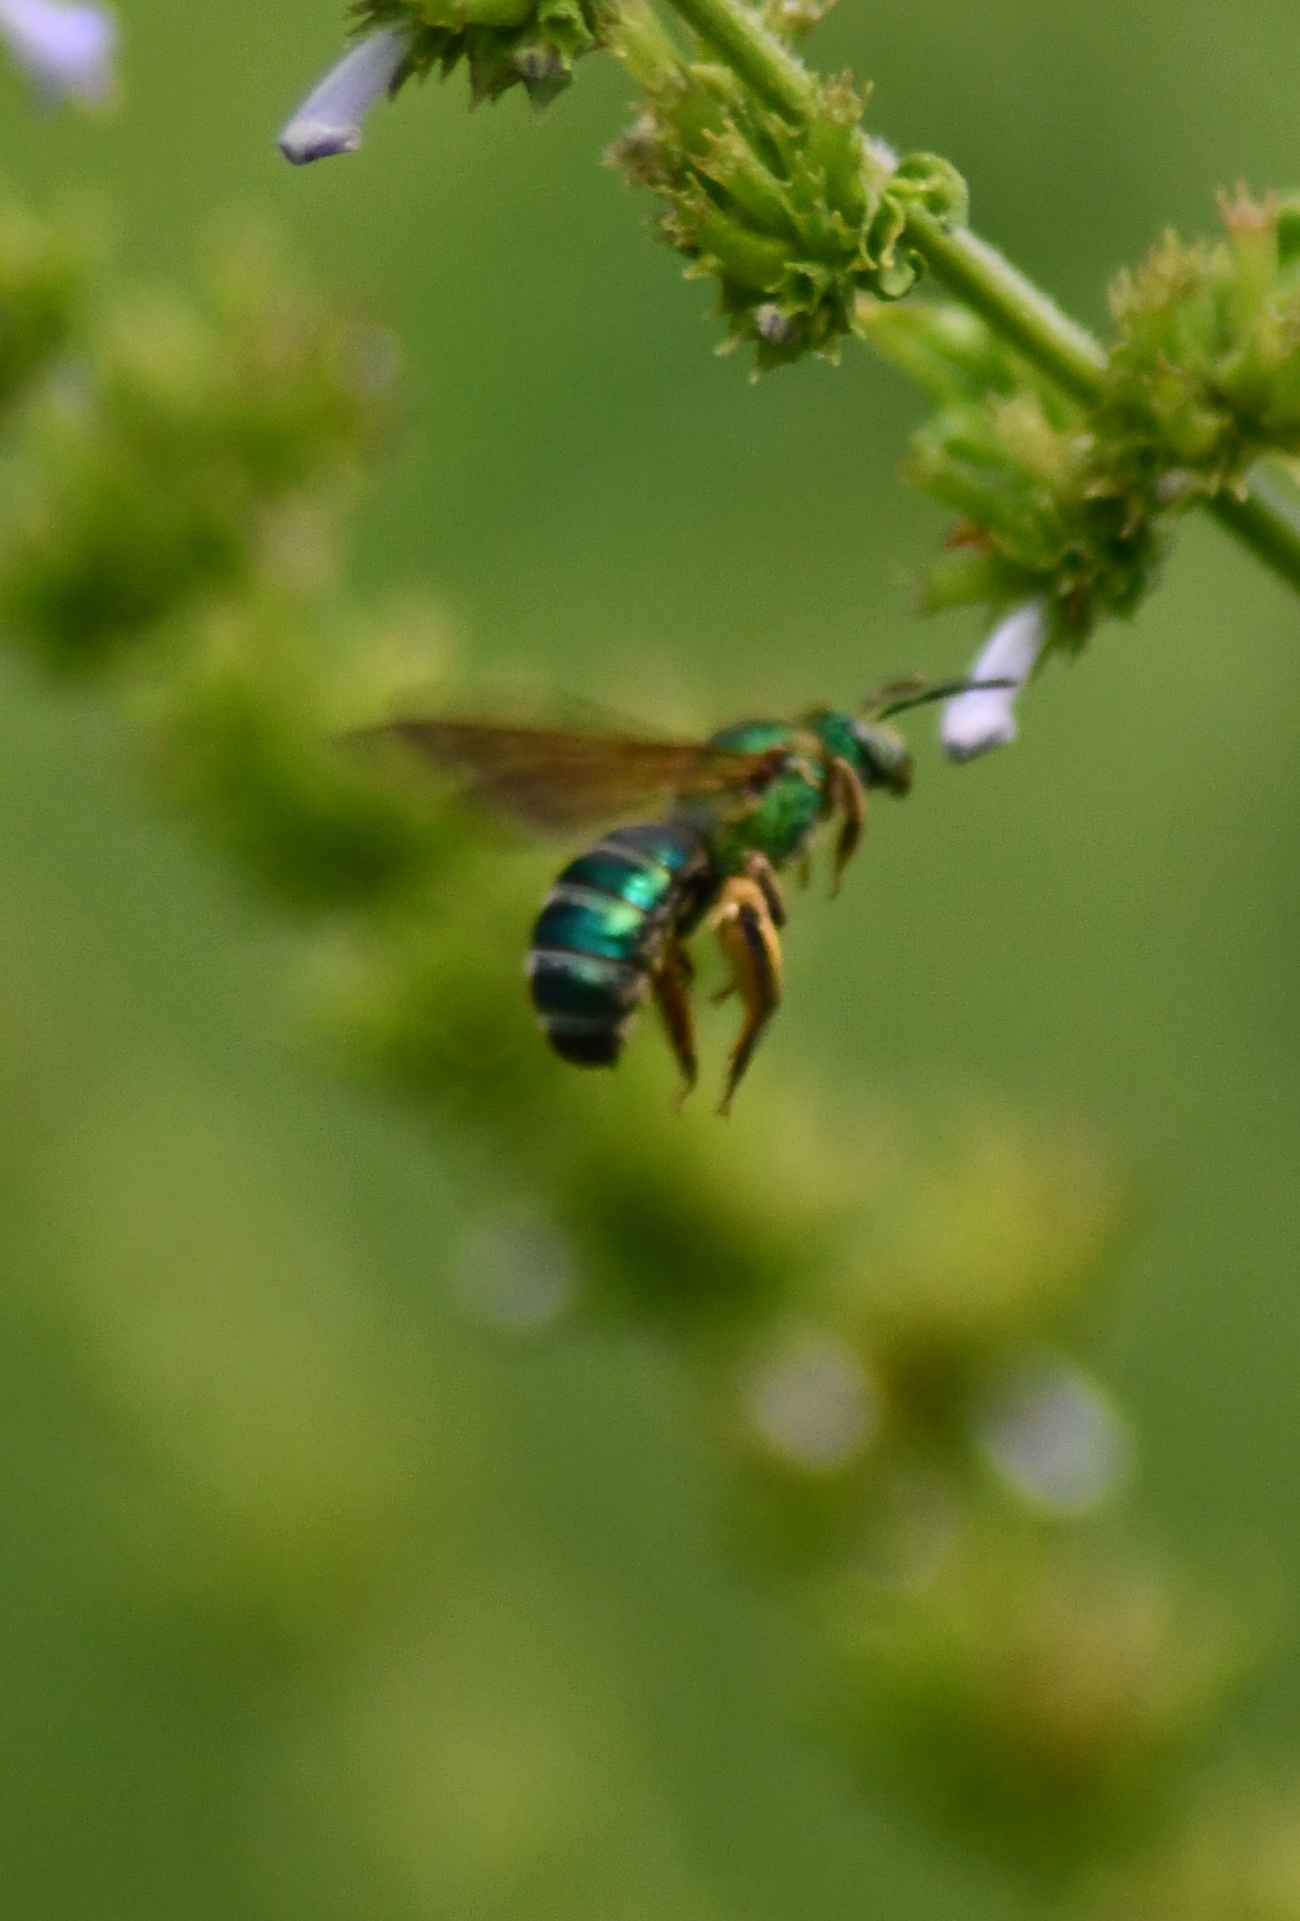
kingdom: Animalia
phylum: Arthropoda
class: Insecta
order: Hymenoptera
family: Halictidae
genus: Agapostemon
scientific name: Agapostemon splendens
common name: Brown-winged striped sweat bee
